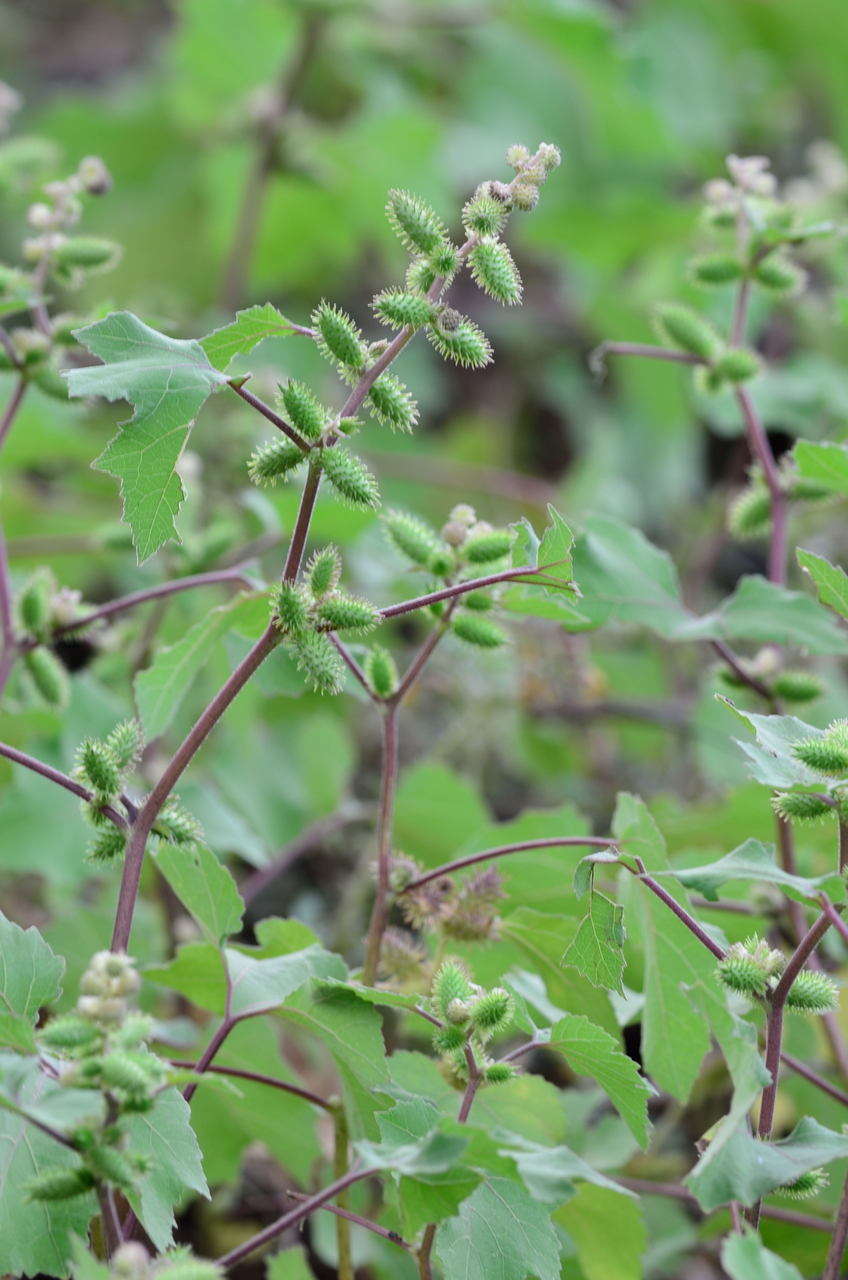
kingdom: Plantae
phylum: Tracheophyta
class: Magnoliopsida
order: Asterales
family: Asteraceae
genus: Xanthium
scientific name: Xanthium strumarium
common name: Rough cocklebur
